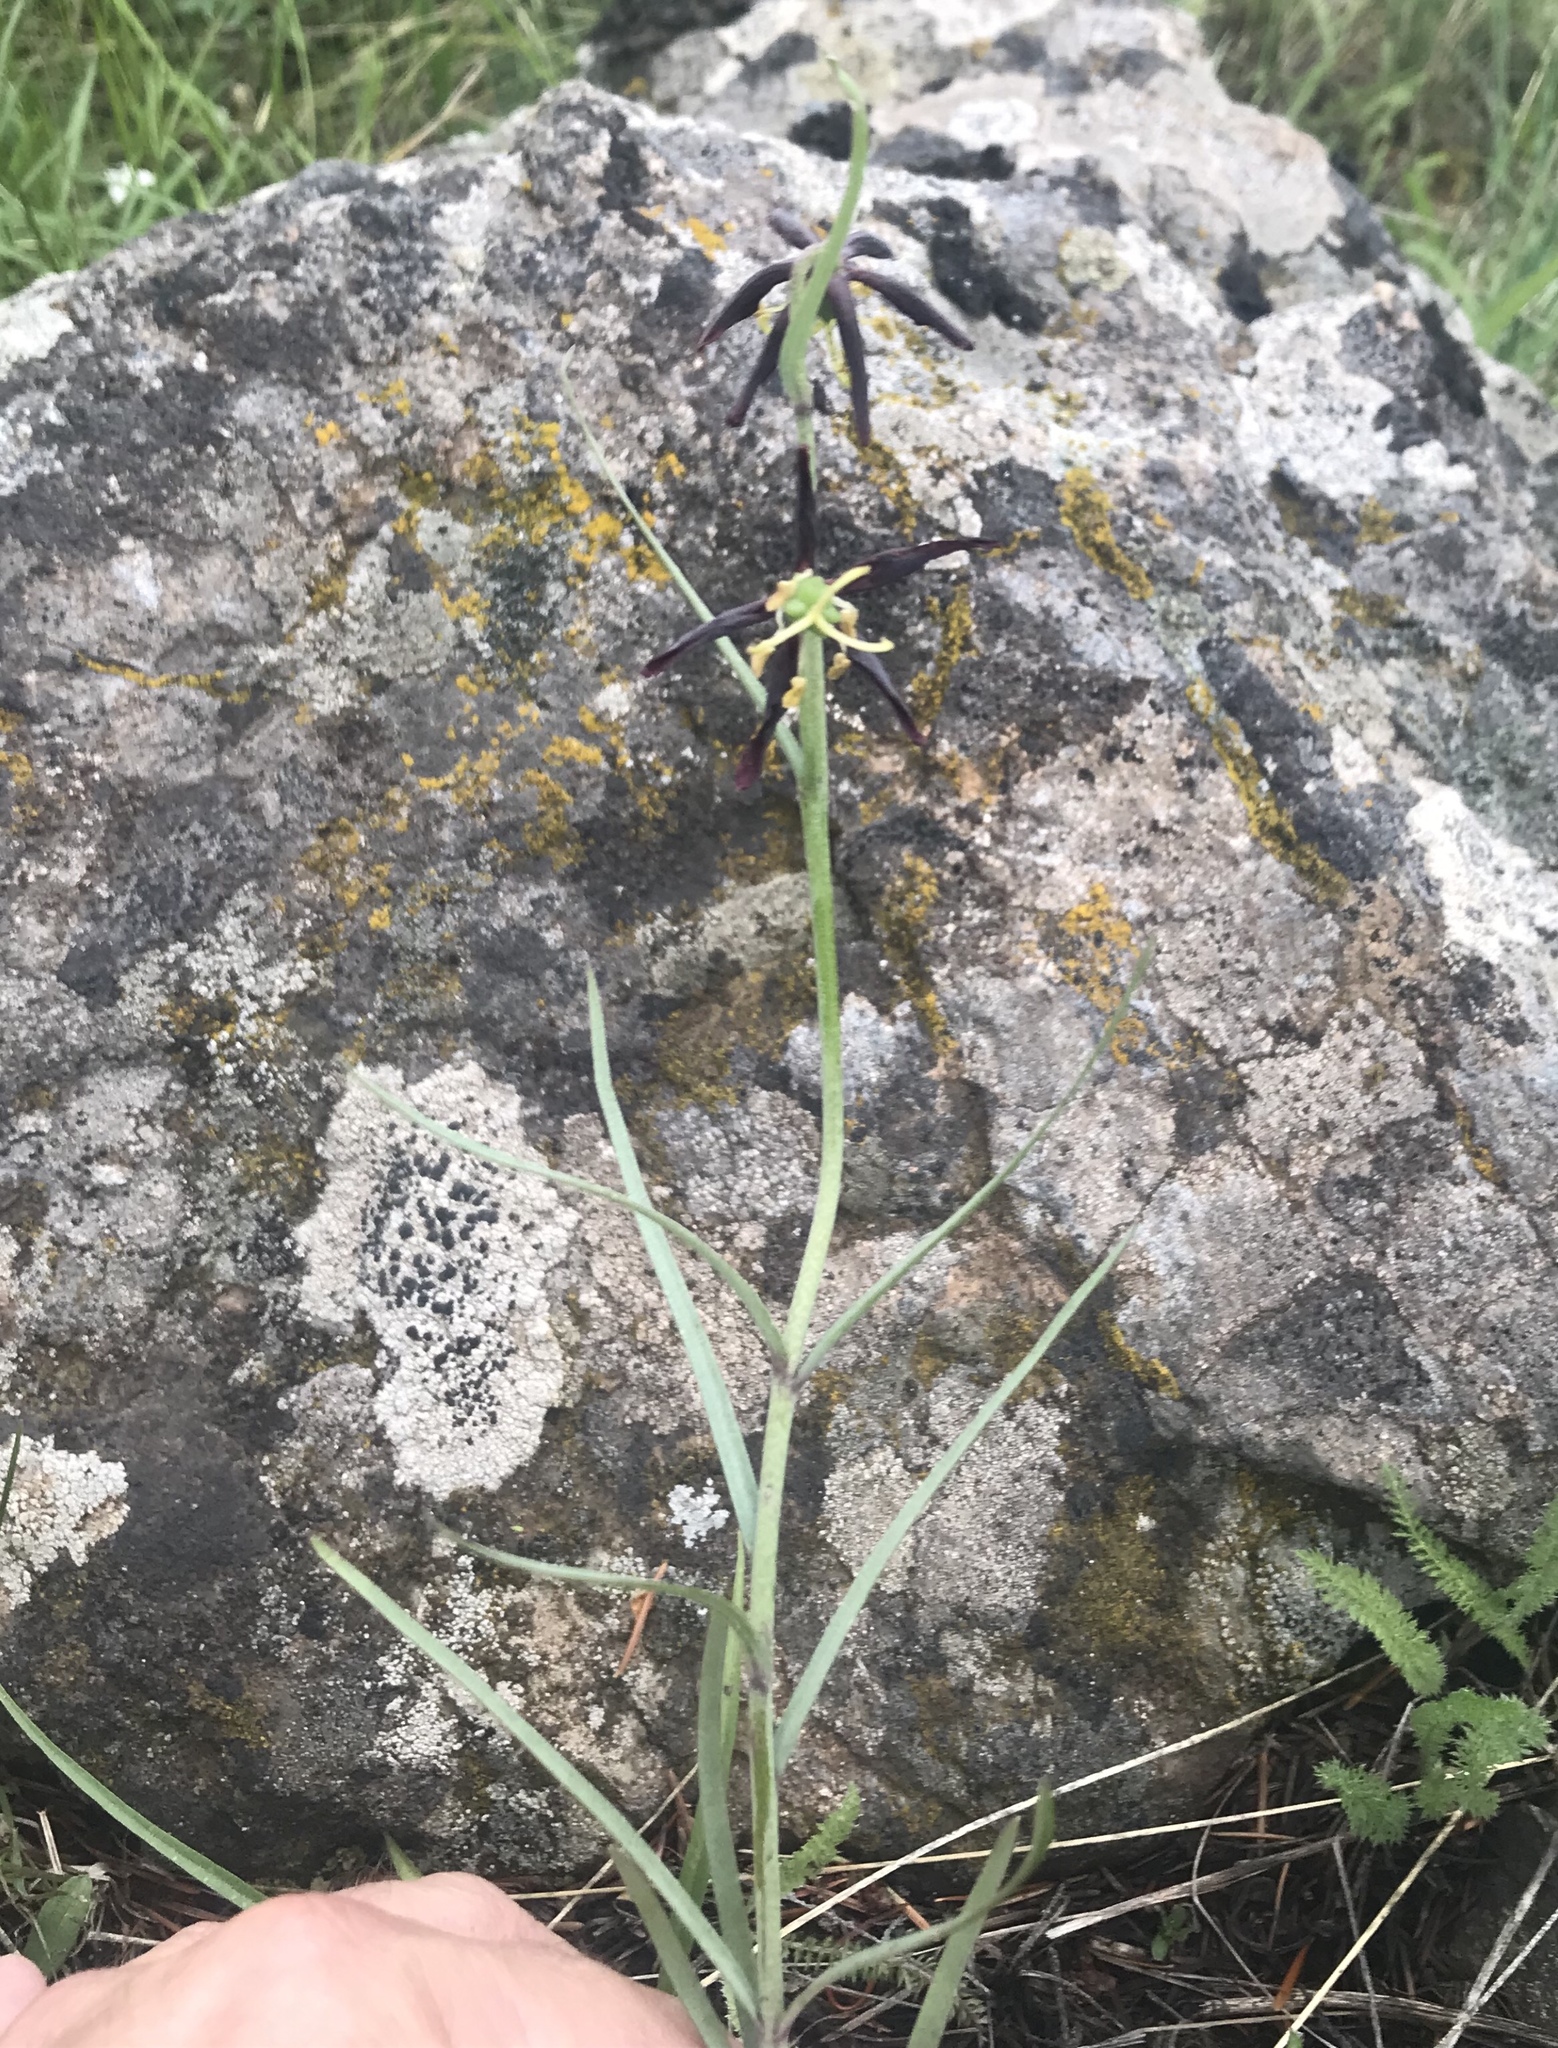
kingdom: Plantae
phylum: Tracheophyta
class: Liliopsida
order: Liliales
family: Liliaceae
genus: Fritillaria
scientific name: Fritillaria atropurpurea
